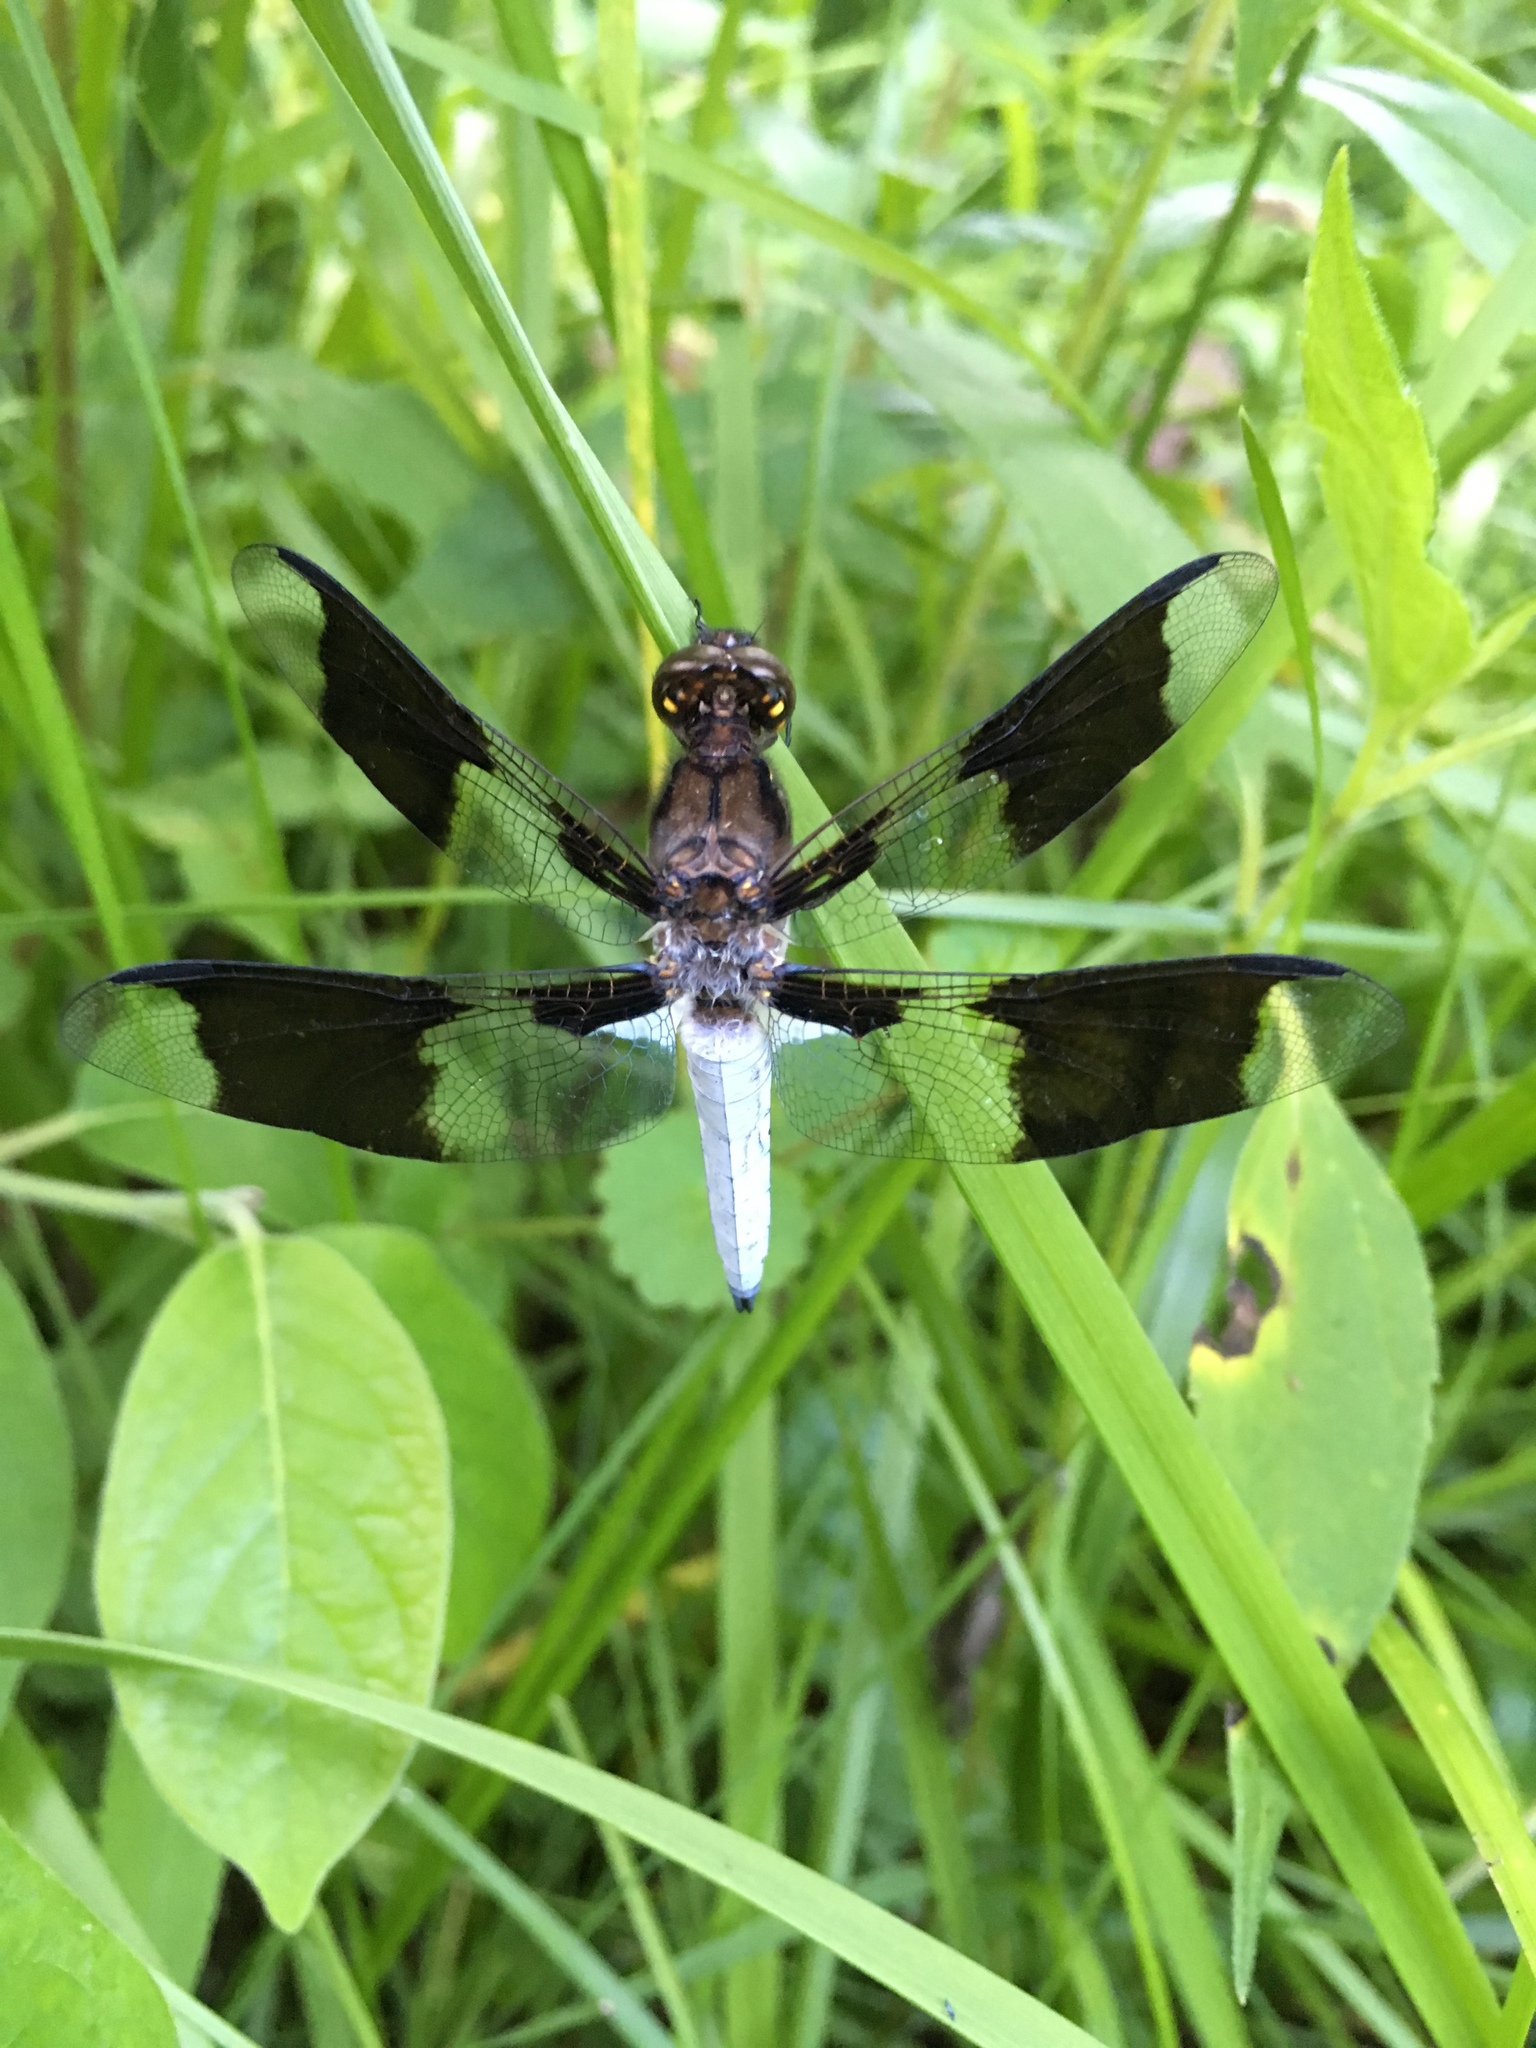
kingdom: Animalia
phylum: Arthropoda
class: Insecta
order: Odonata
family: Libellulidae
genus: Plathemis
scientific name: Plathemis lydia
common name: Common whitetail
